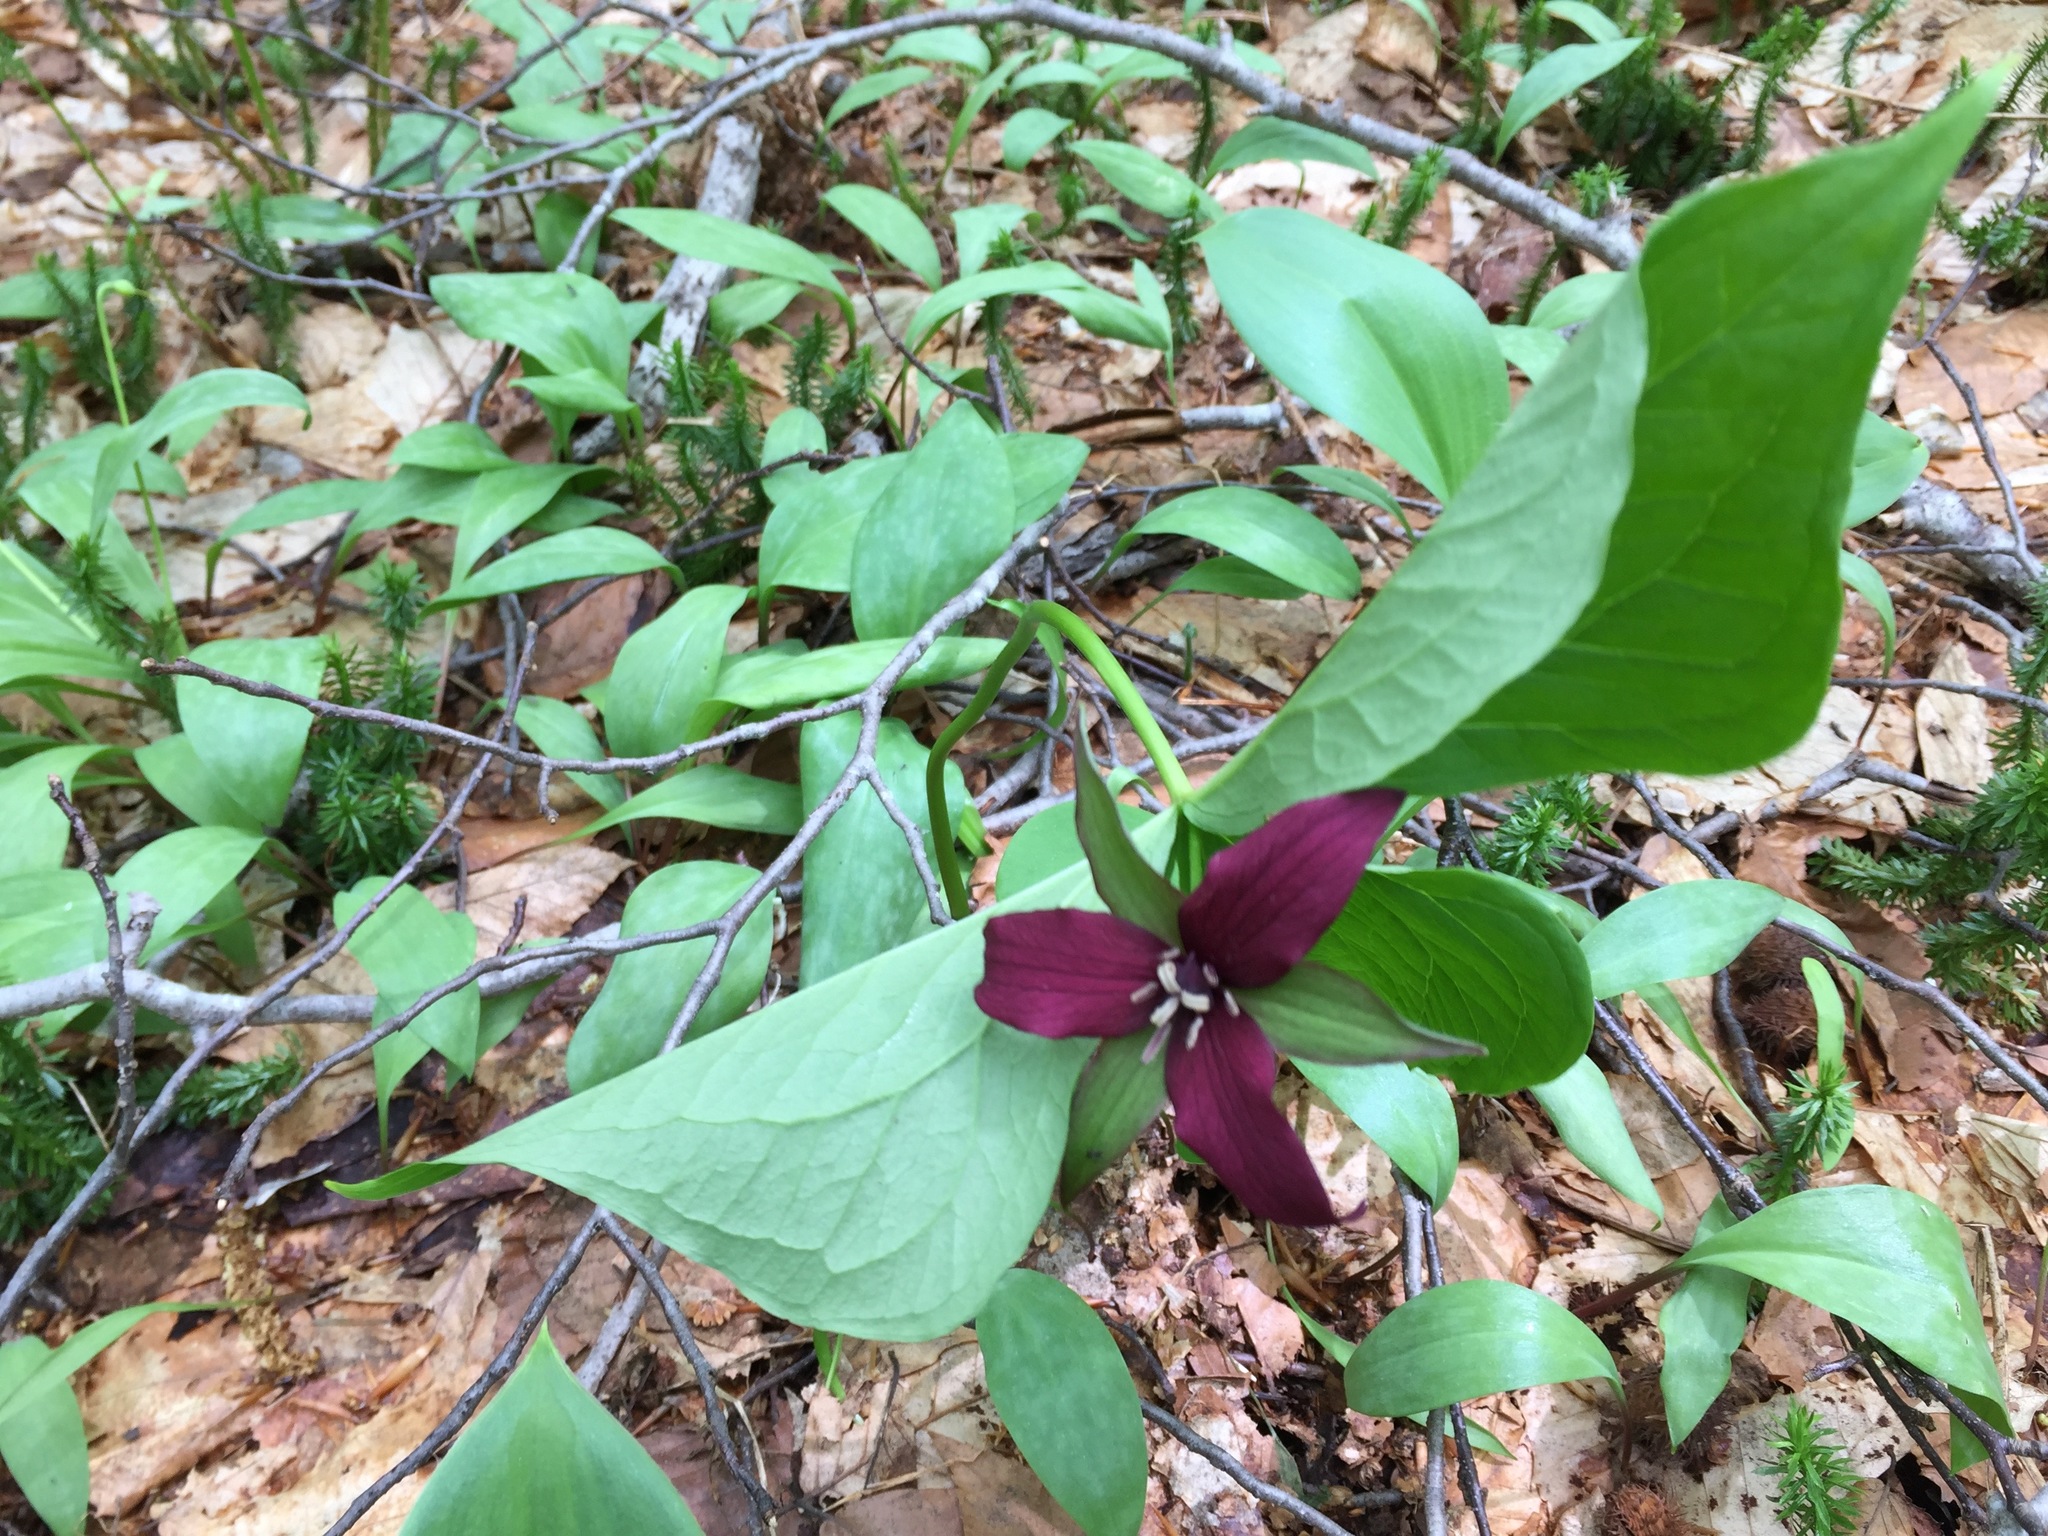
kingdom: Plantae
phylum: Tracheophyta
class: Liliopsida
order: Liliales
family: Melanthiaceae
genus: Trillium
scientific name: Trillium erectum
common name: Purple trillium
